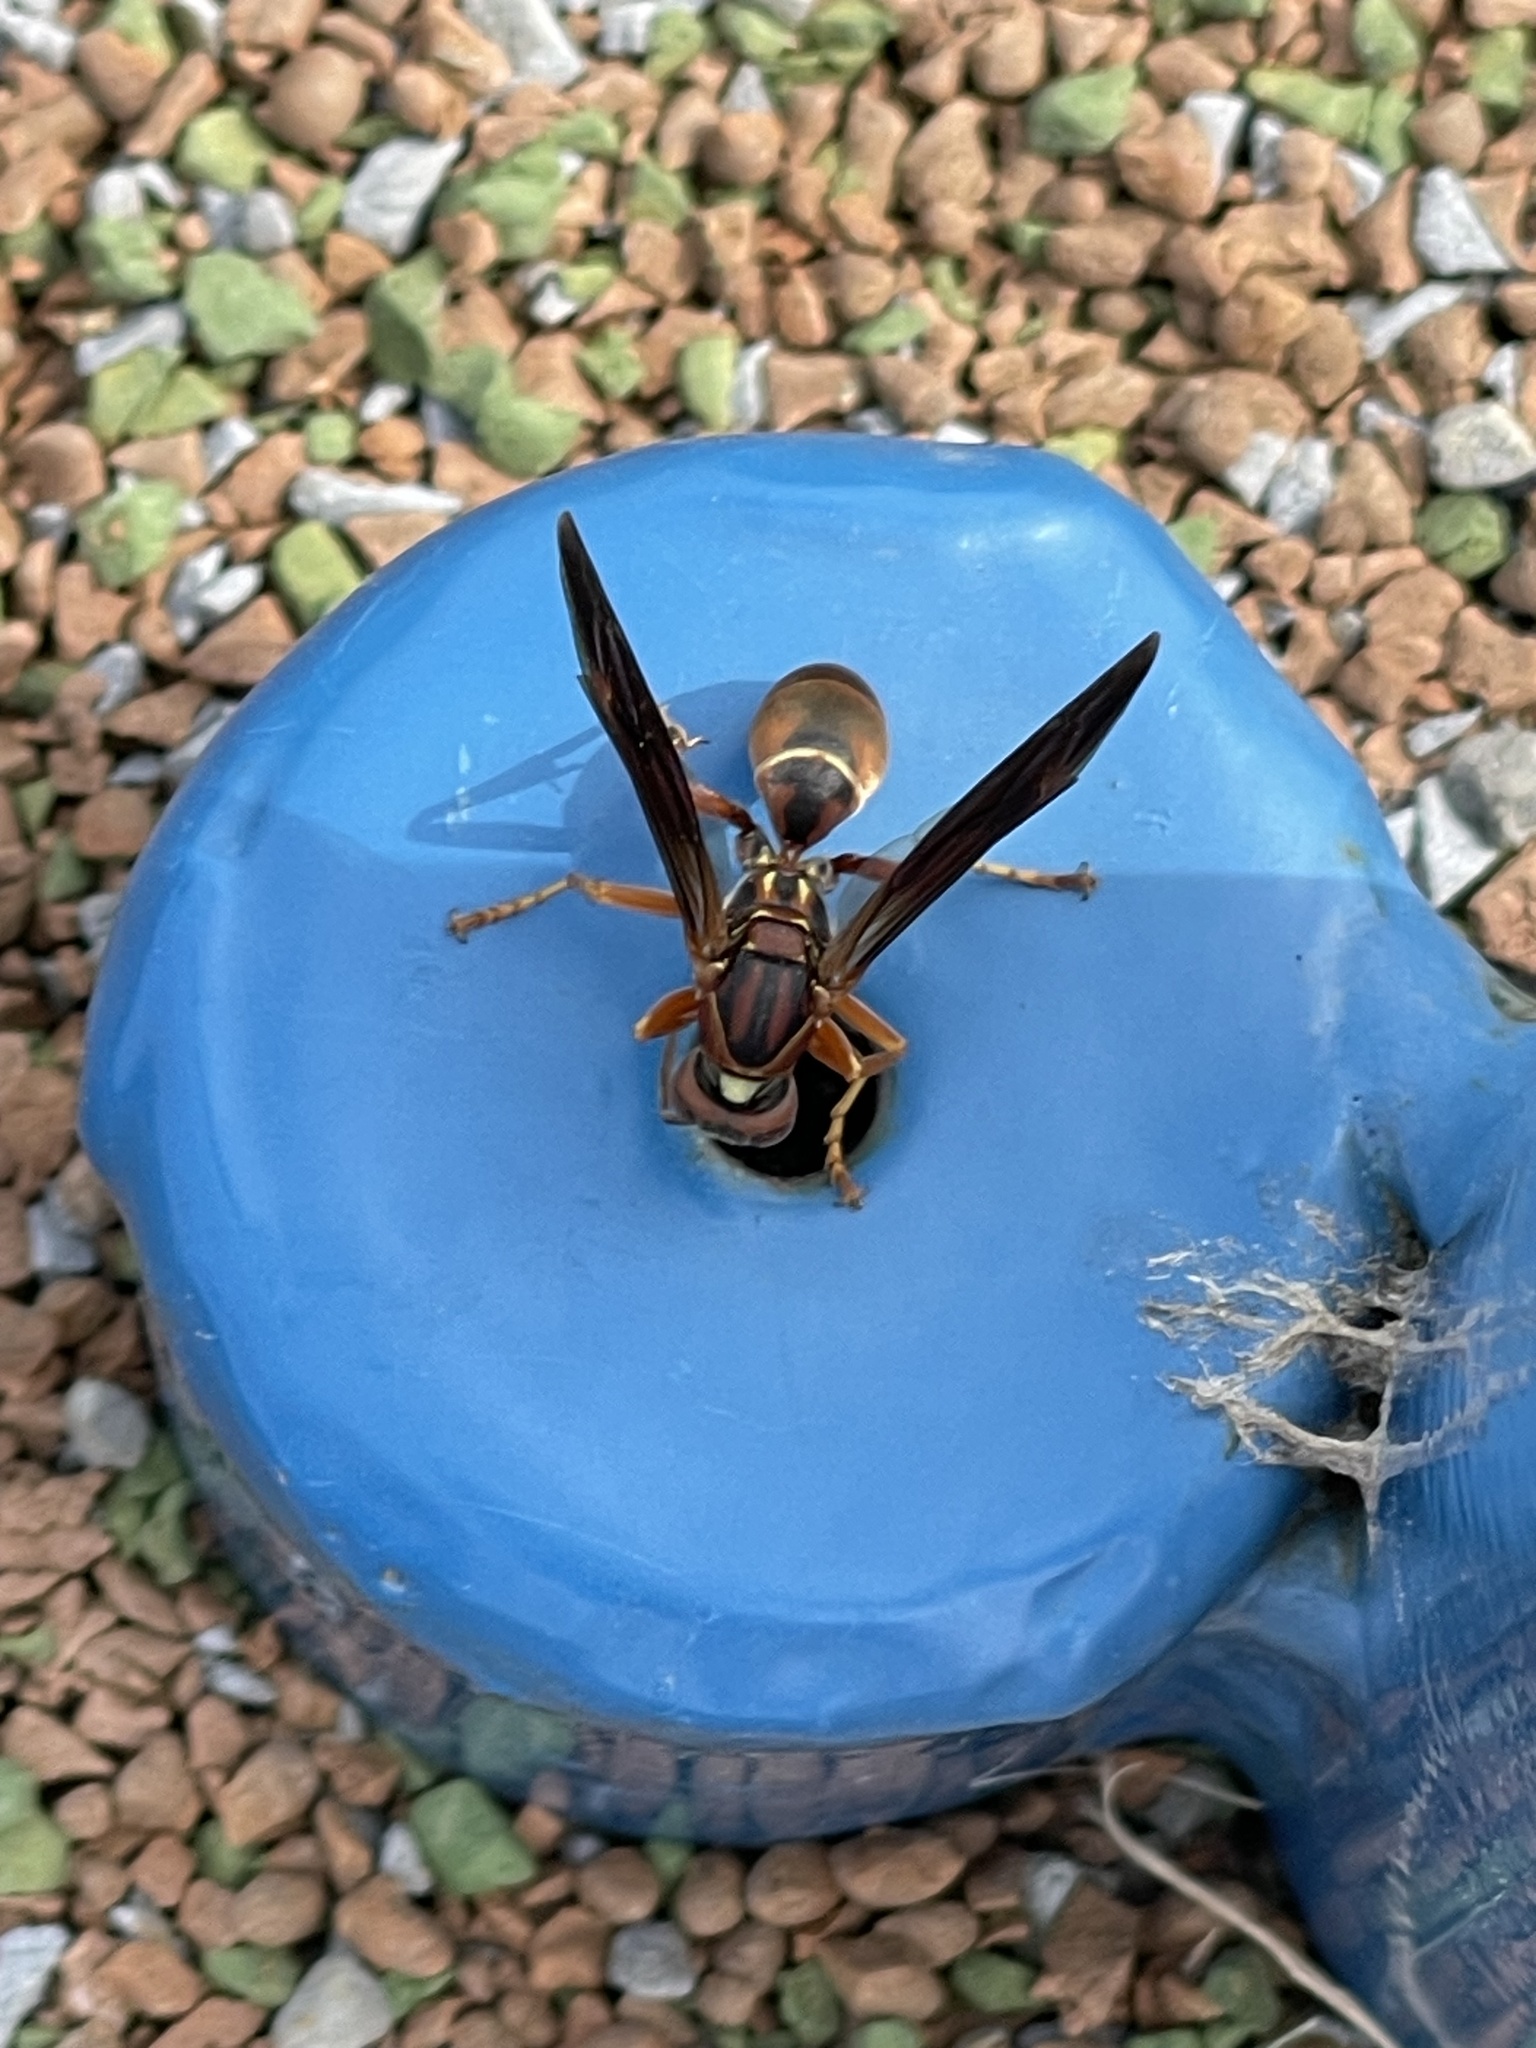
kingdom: Animalia
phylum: Arthropoda
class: Insecta
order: Hymenoptera
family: Eumenidae
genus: Polistes
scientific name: Polistes metricus
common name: Metric paper wasp
